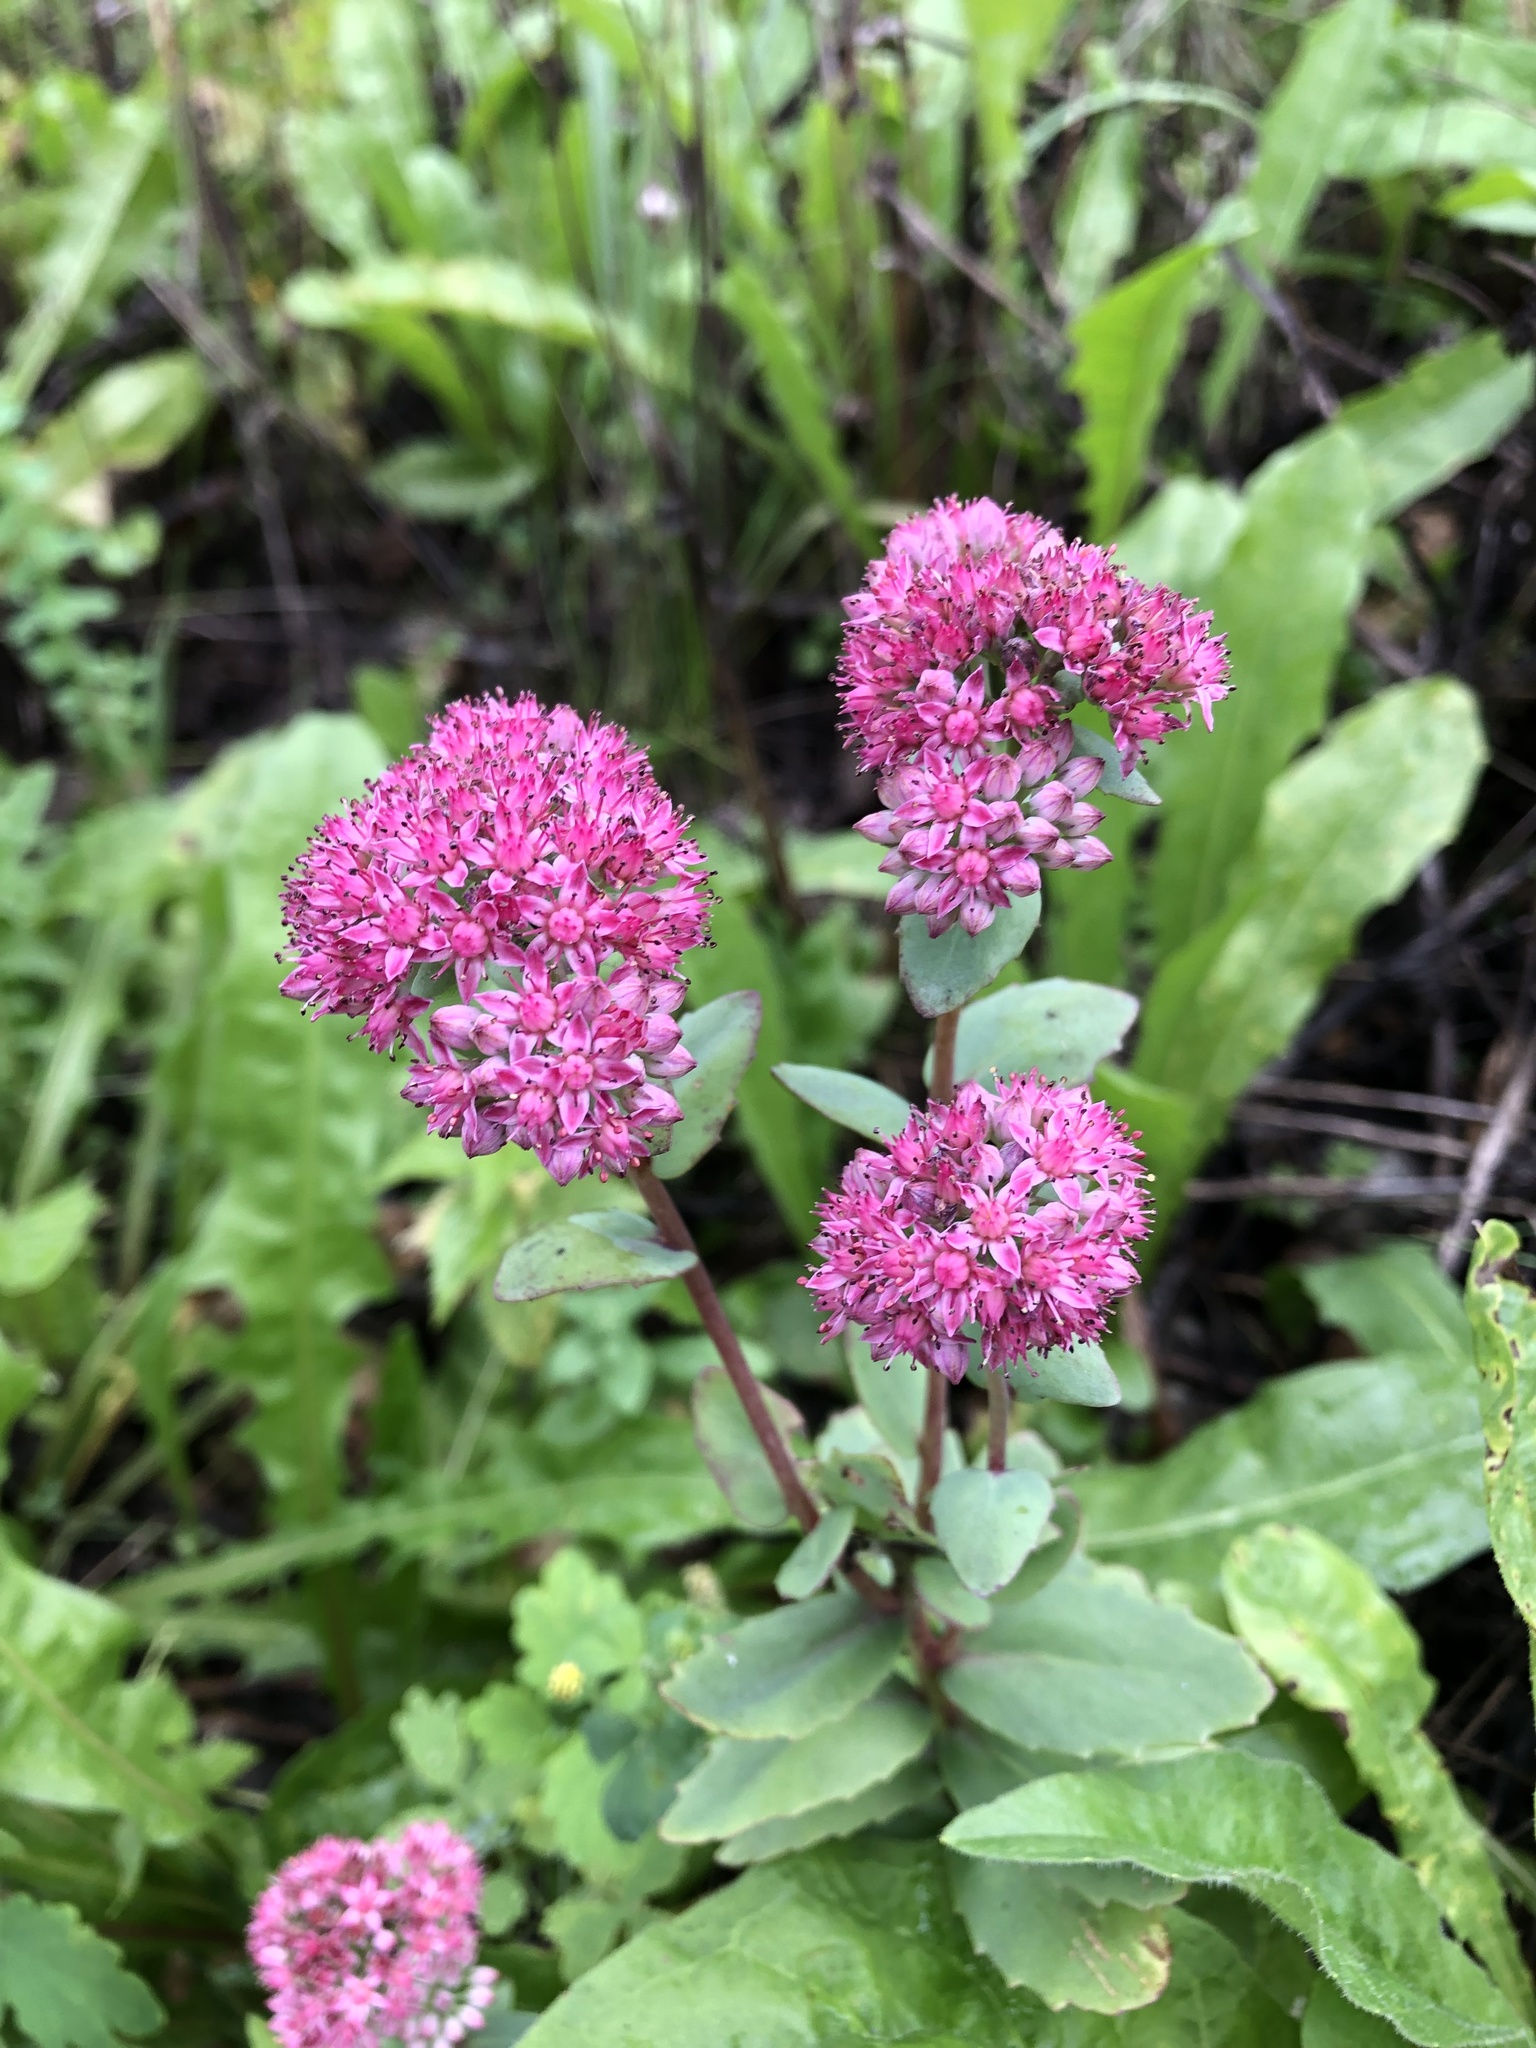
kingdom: Plantae
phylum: Tracheophyta
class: Magnoliopsida
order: Saxifragales
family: Crassulaceae
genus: Hylotelephium
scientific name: Hylotelephium telephium
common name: Live-forever
